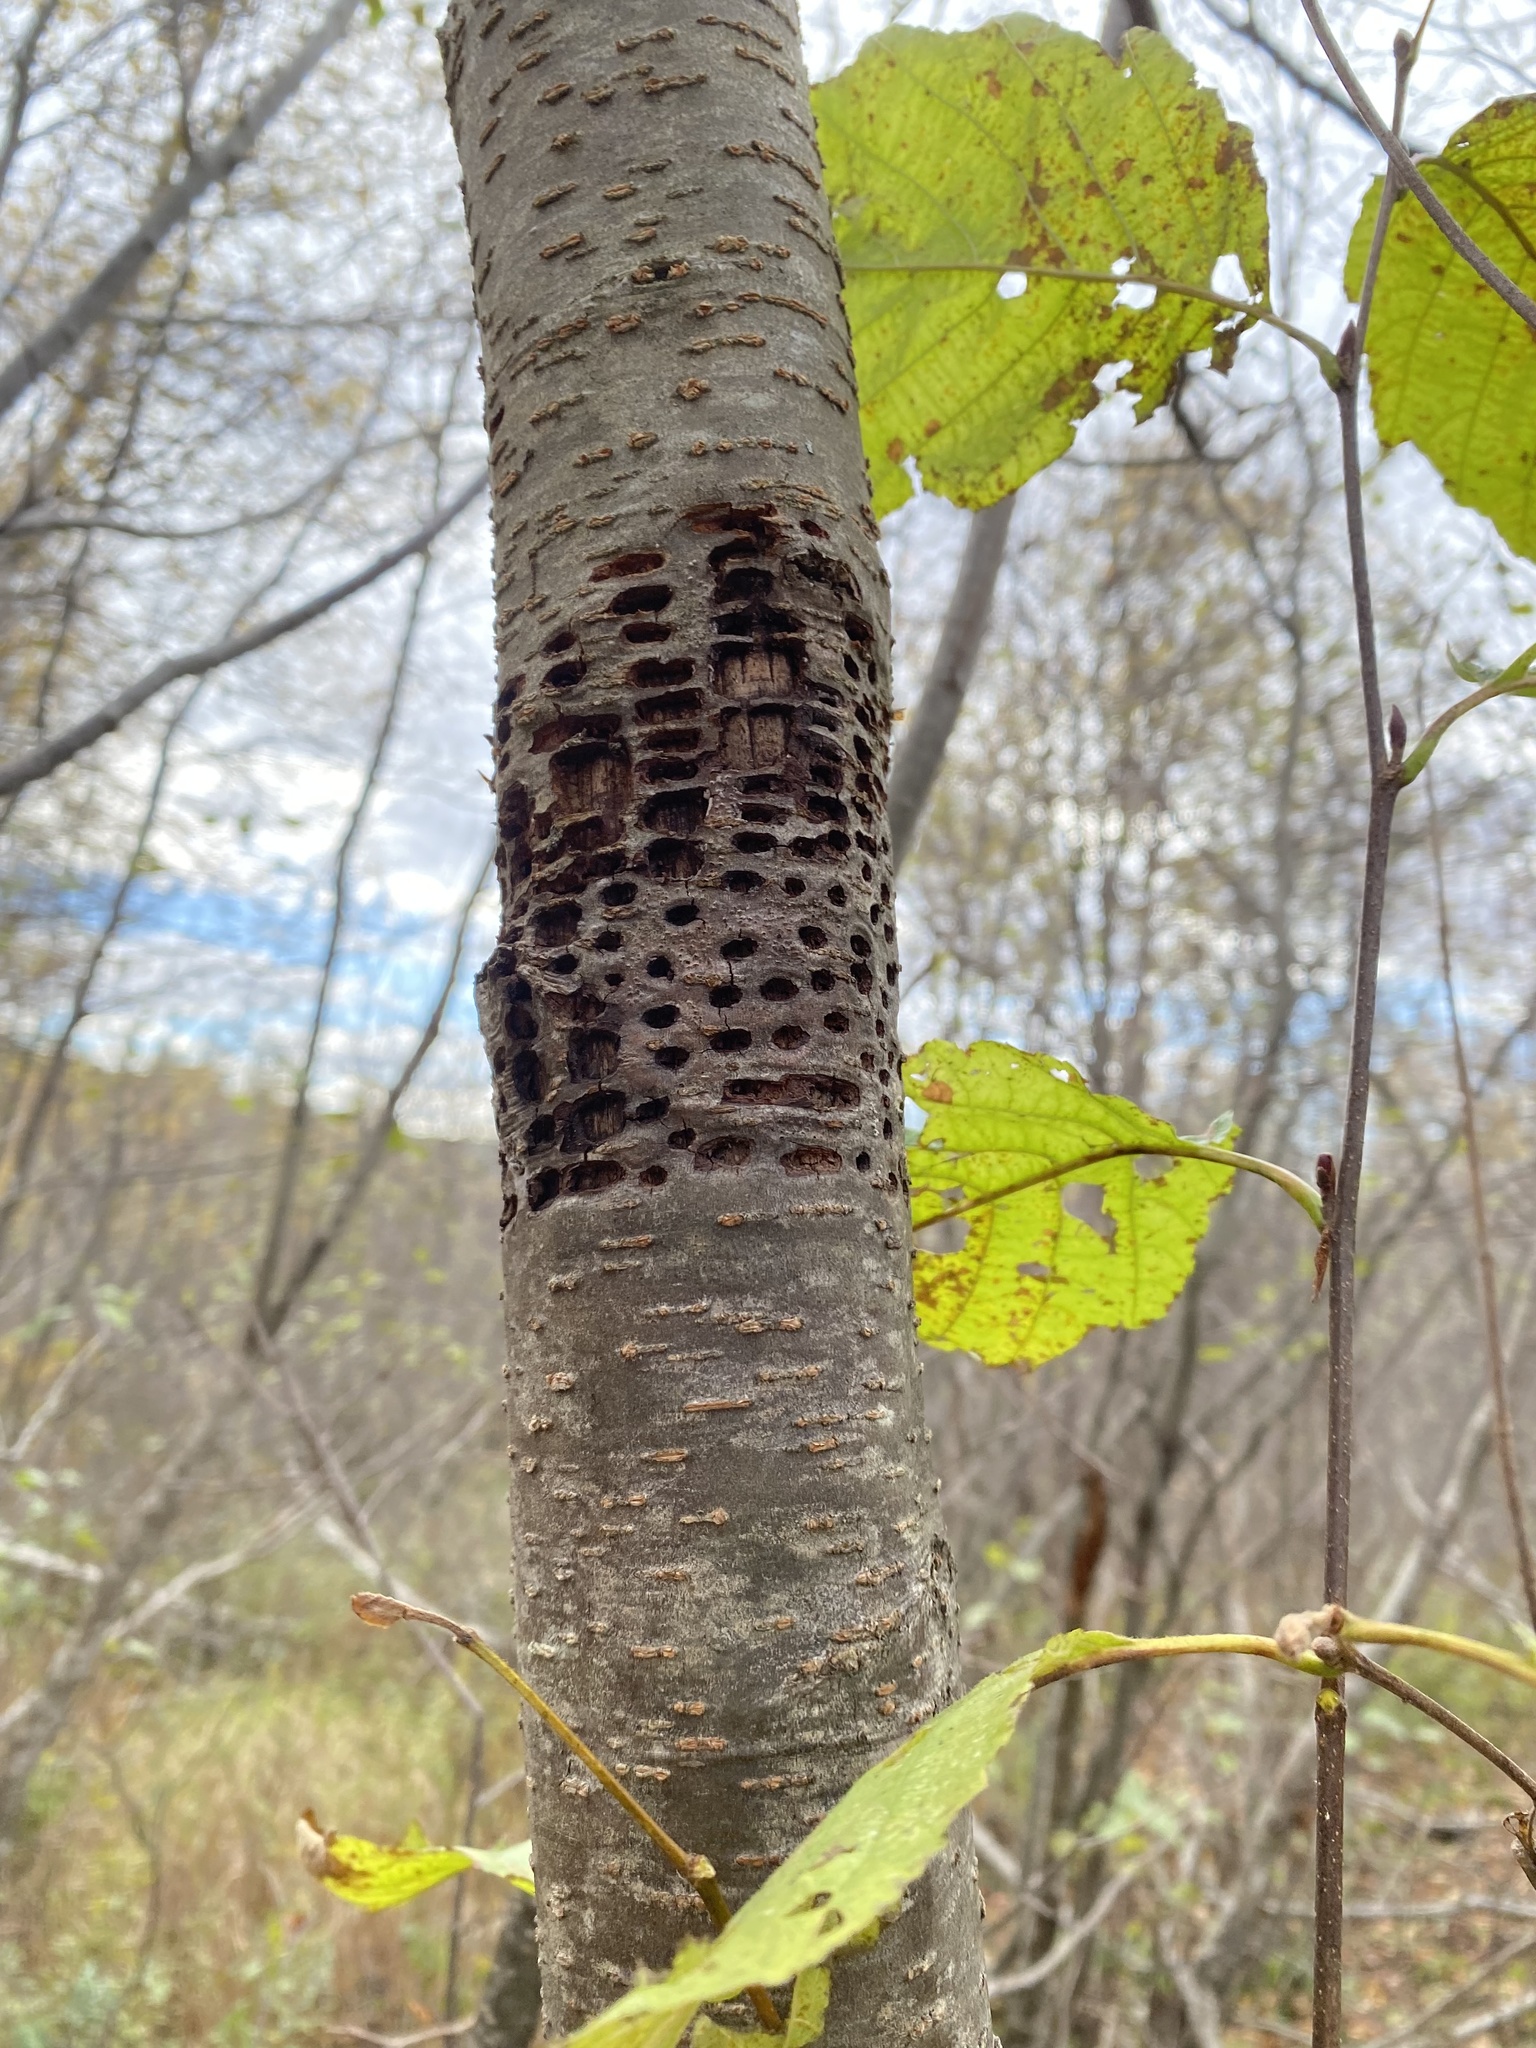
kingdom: Animalia
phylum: Chordata
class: Aves
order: Piciformes
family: Picidae
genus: Sphyrapicus
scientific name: Sphyrapicus varius
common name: Yellow-bellied sapsucker
